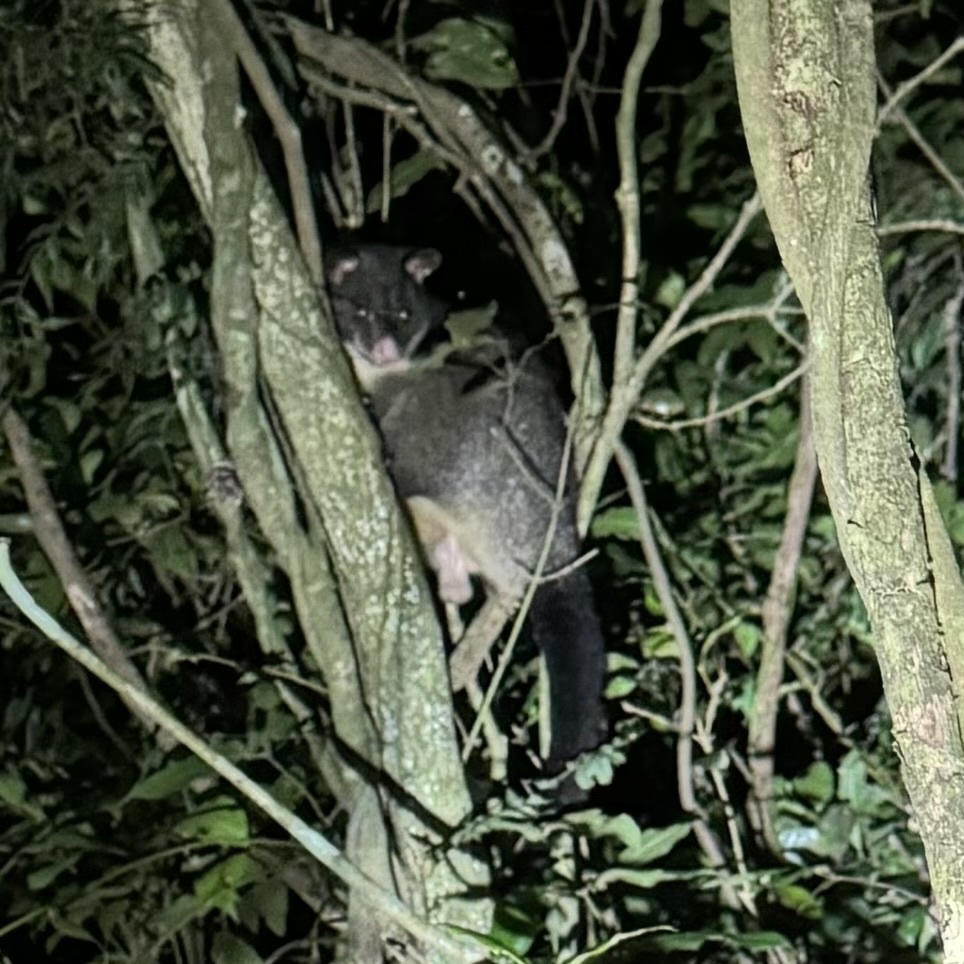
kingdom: Animalia
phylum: Chordata
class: Mammalia
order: Diprotodontia
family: Phalangeridae
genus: Trichosurus
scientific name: Trichosurus caninus
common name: Short-eared possum
